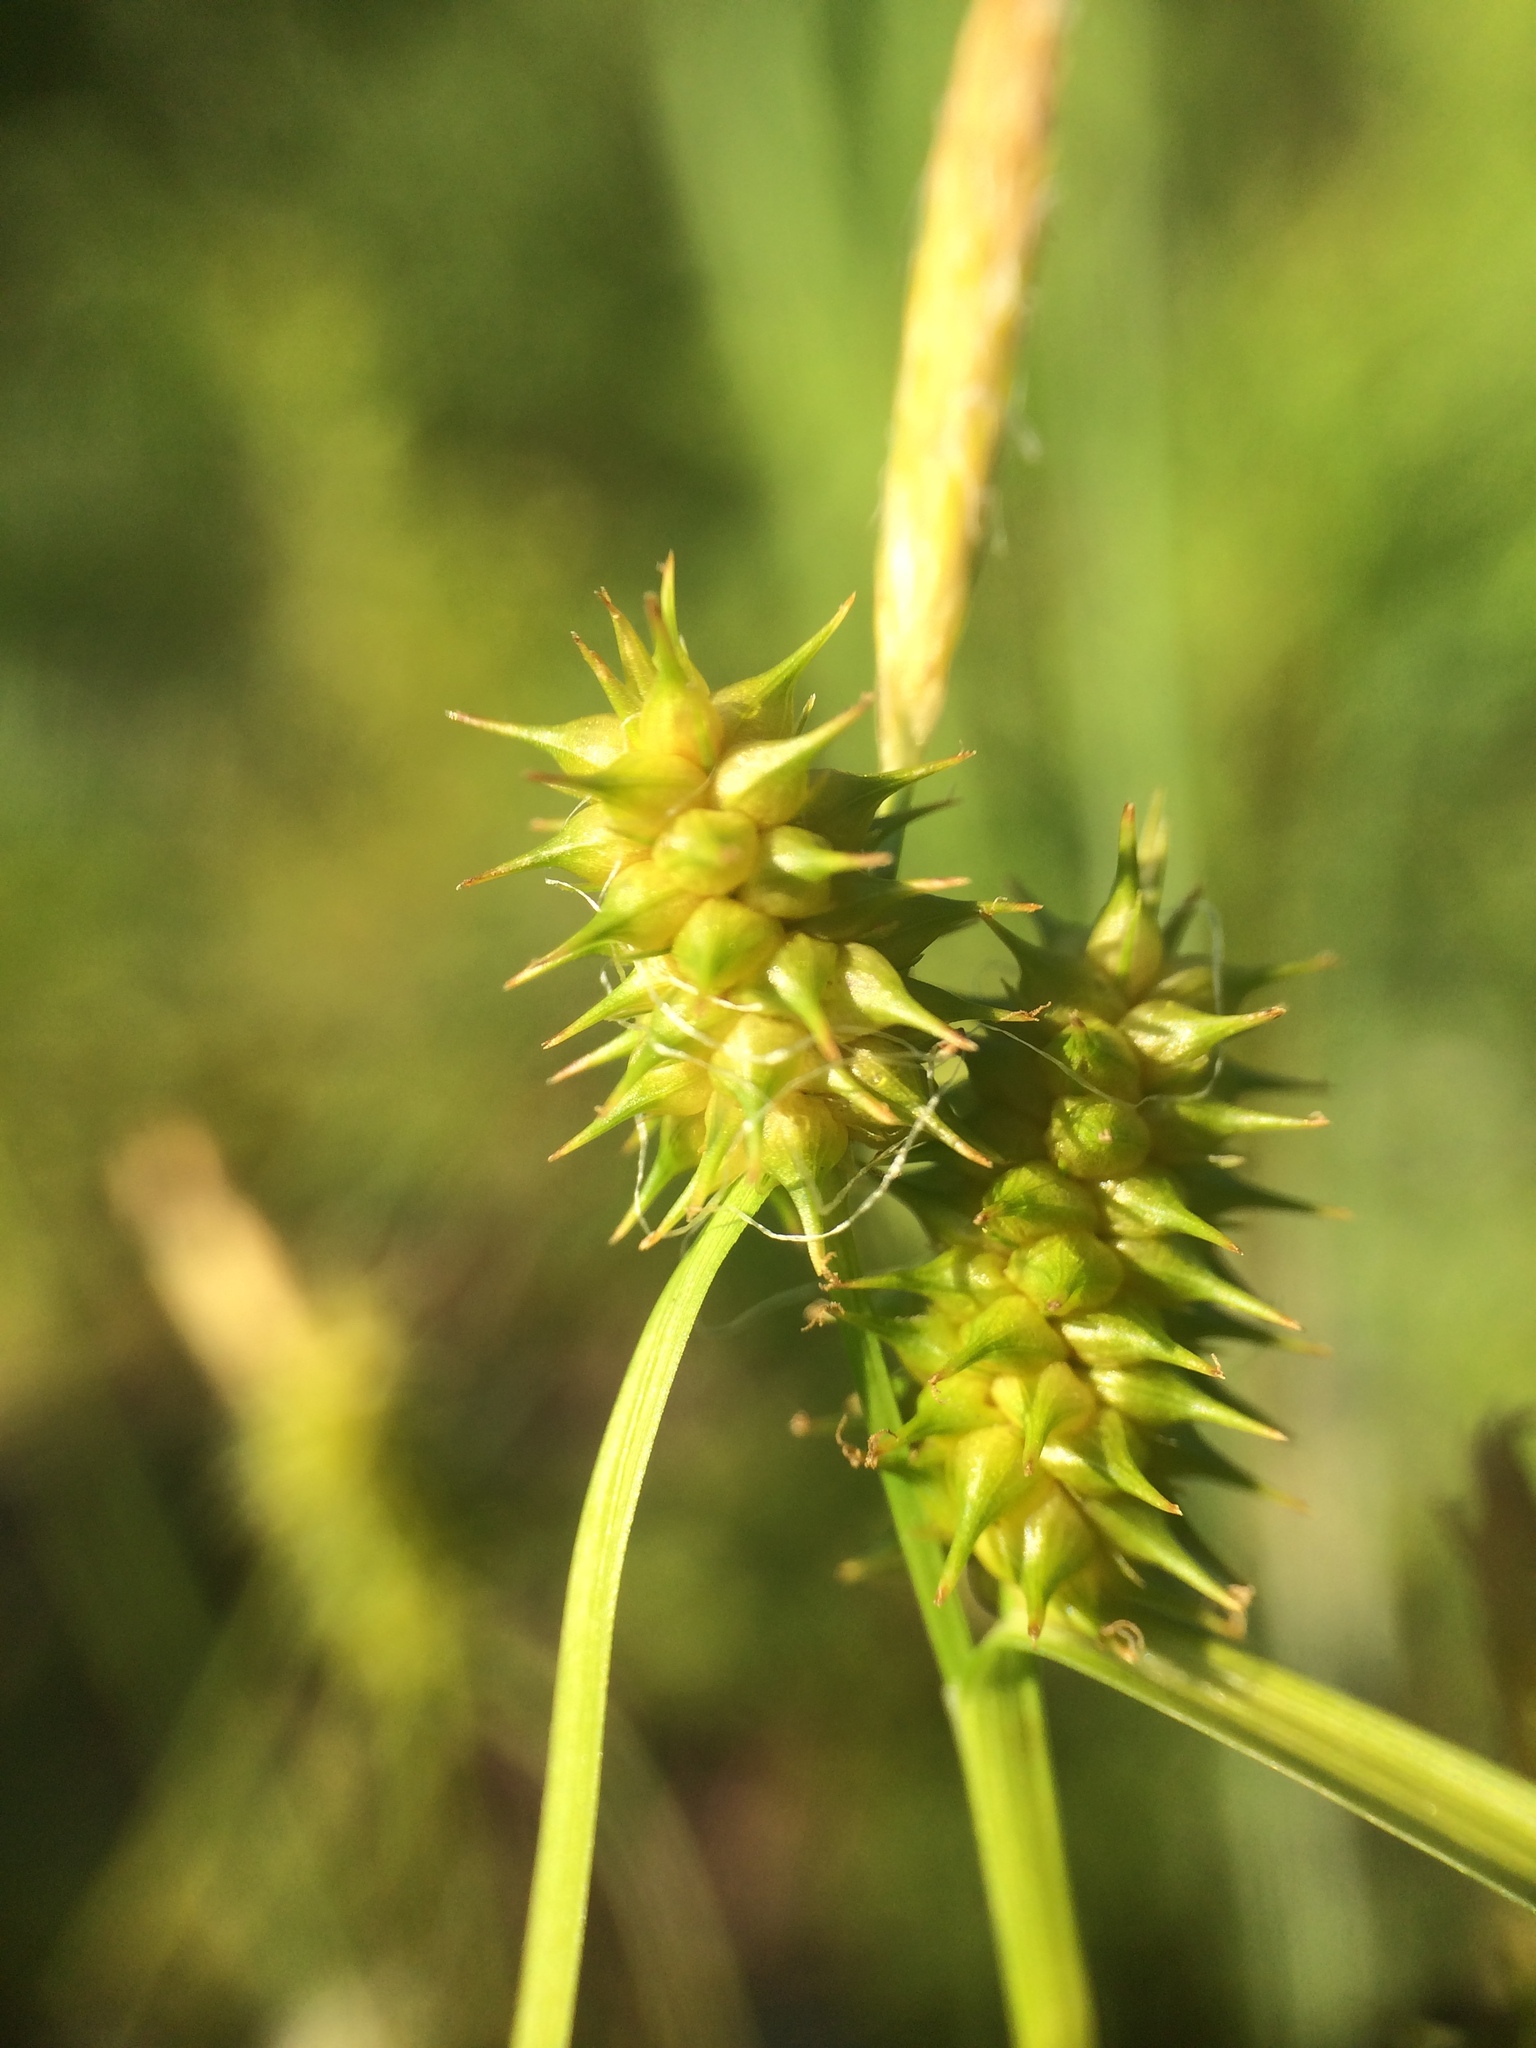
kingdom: Plantae
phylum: Tracheophyta
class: Liliopsida
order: Poales
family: Cyperaceae
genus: Carex
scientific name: Carex cryptolepis
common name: Northeastern sedge
